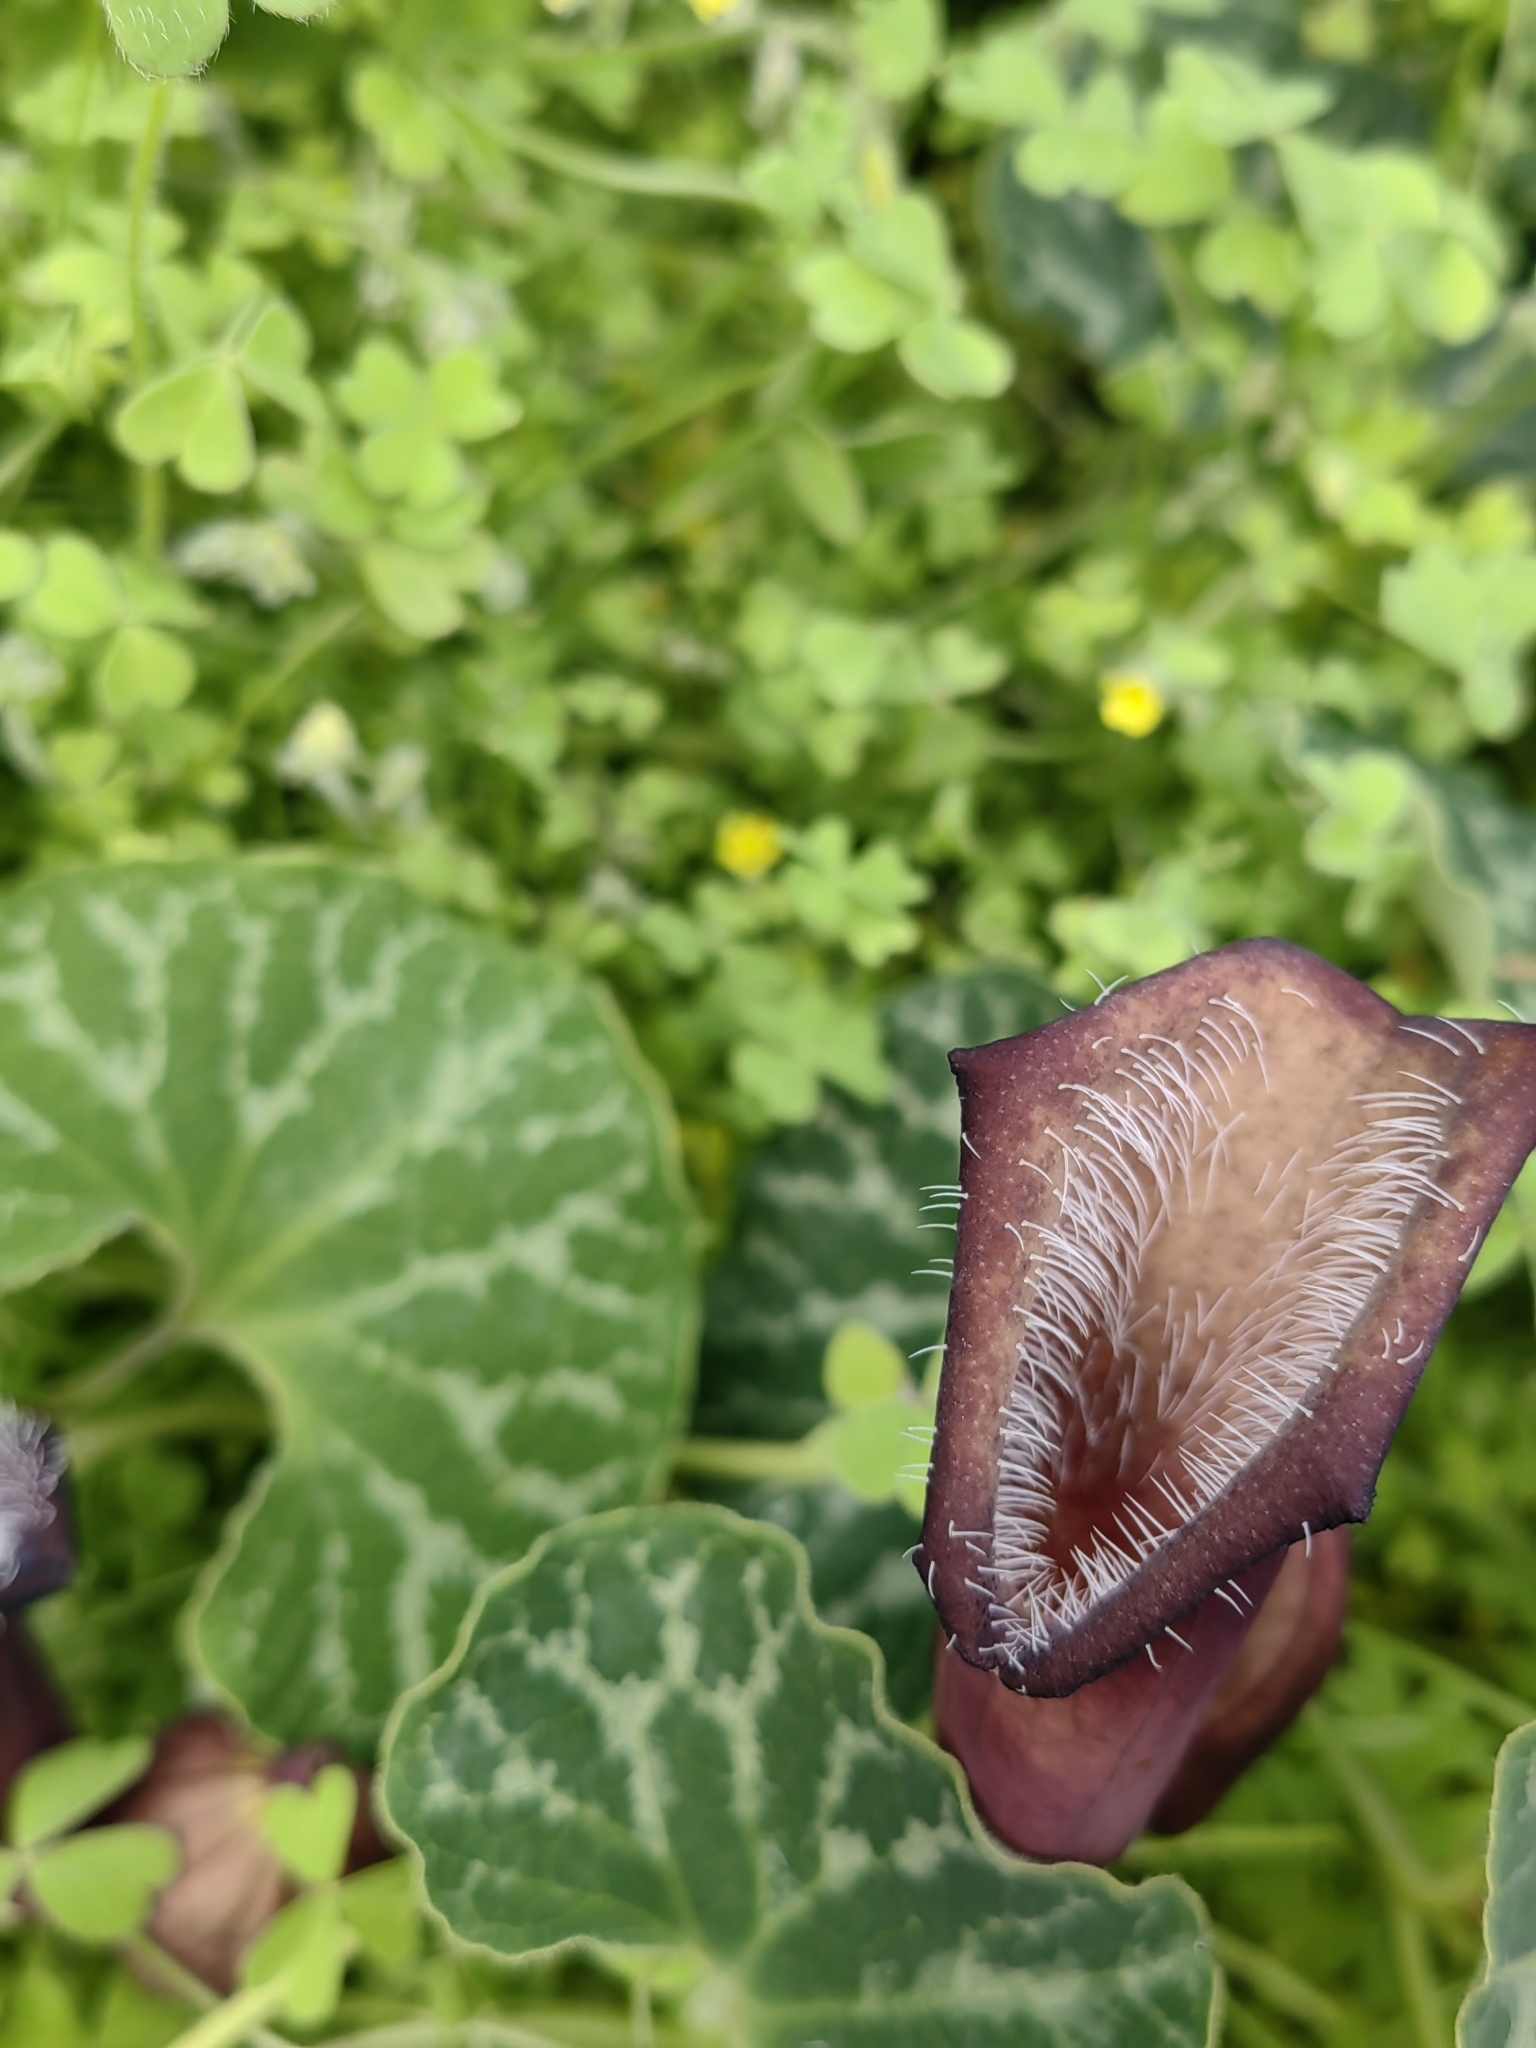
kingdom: Plantae
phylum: Tracheophyta
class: Magnoliopsida
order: Piperales
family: Aristolochiaceae
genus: Aristolochia
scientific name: Aristolochia chilensis
